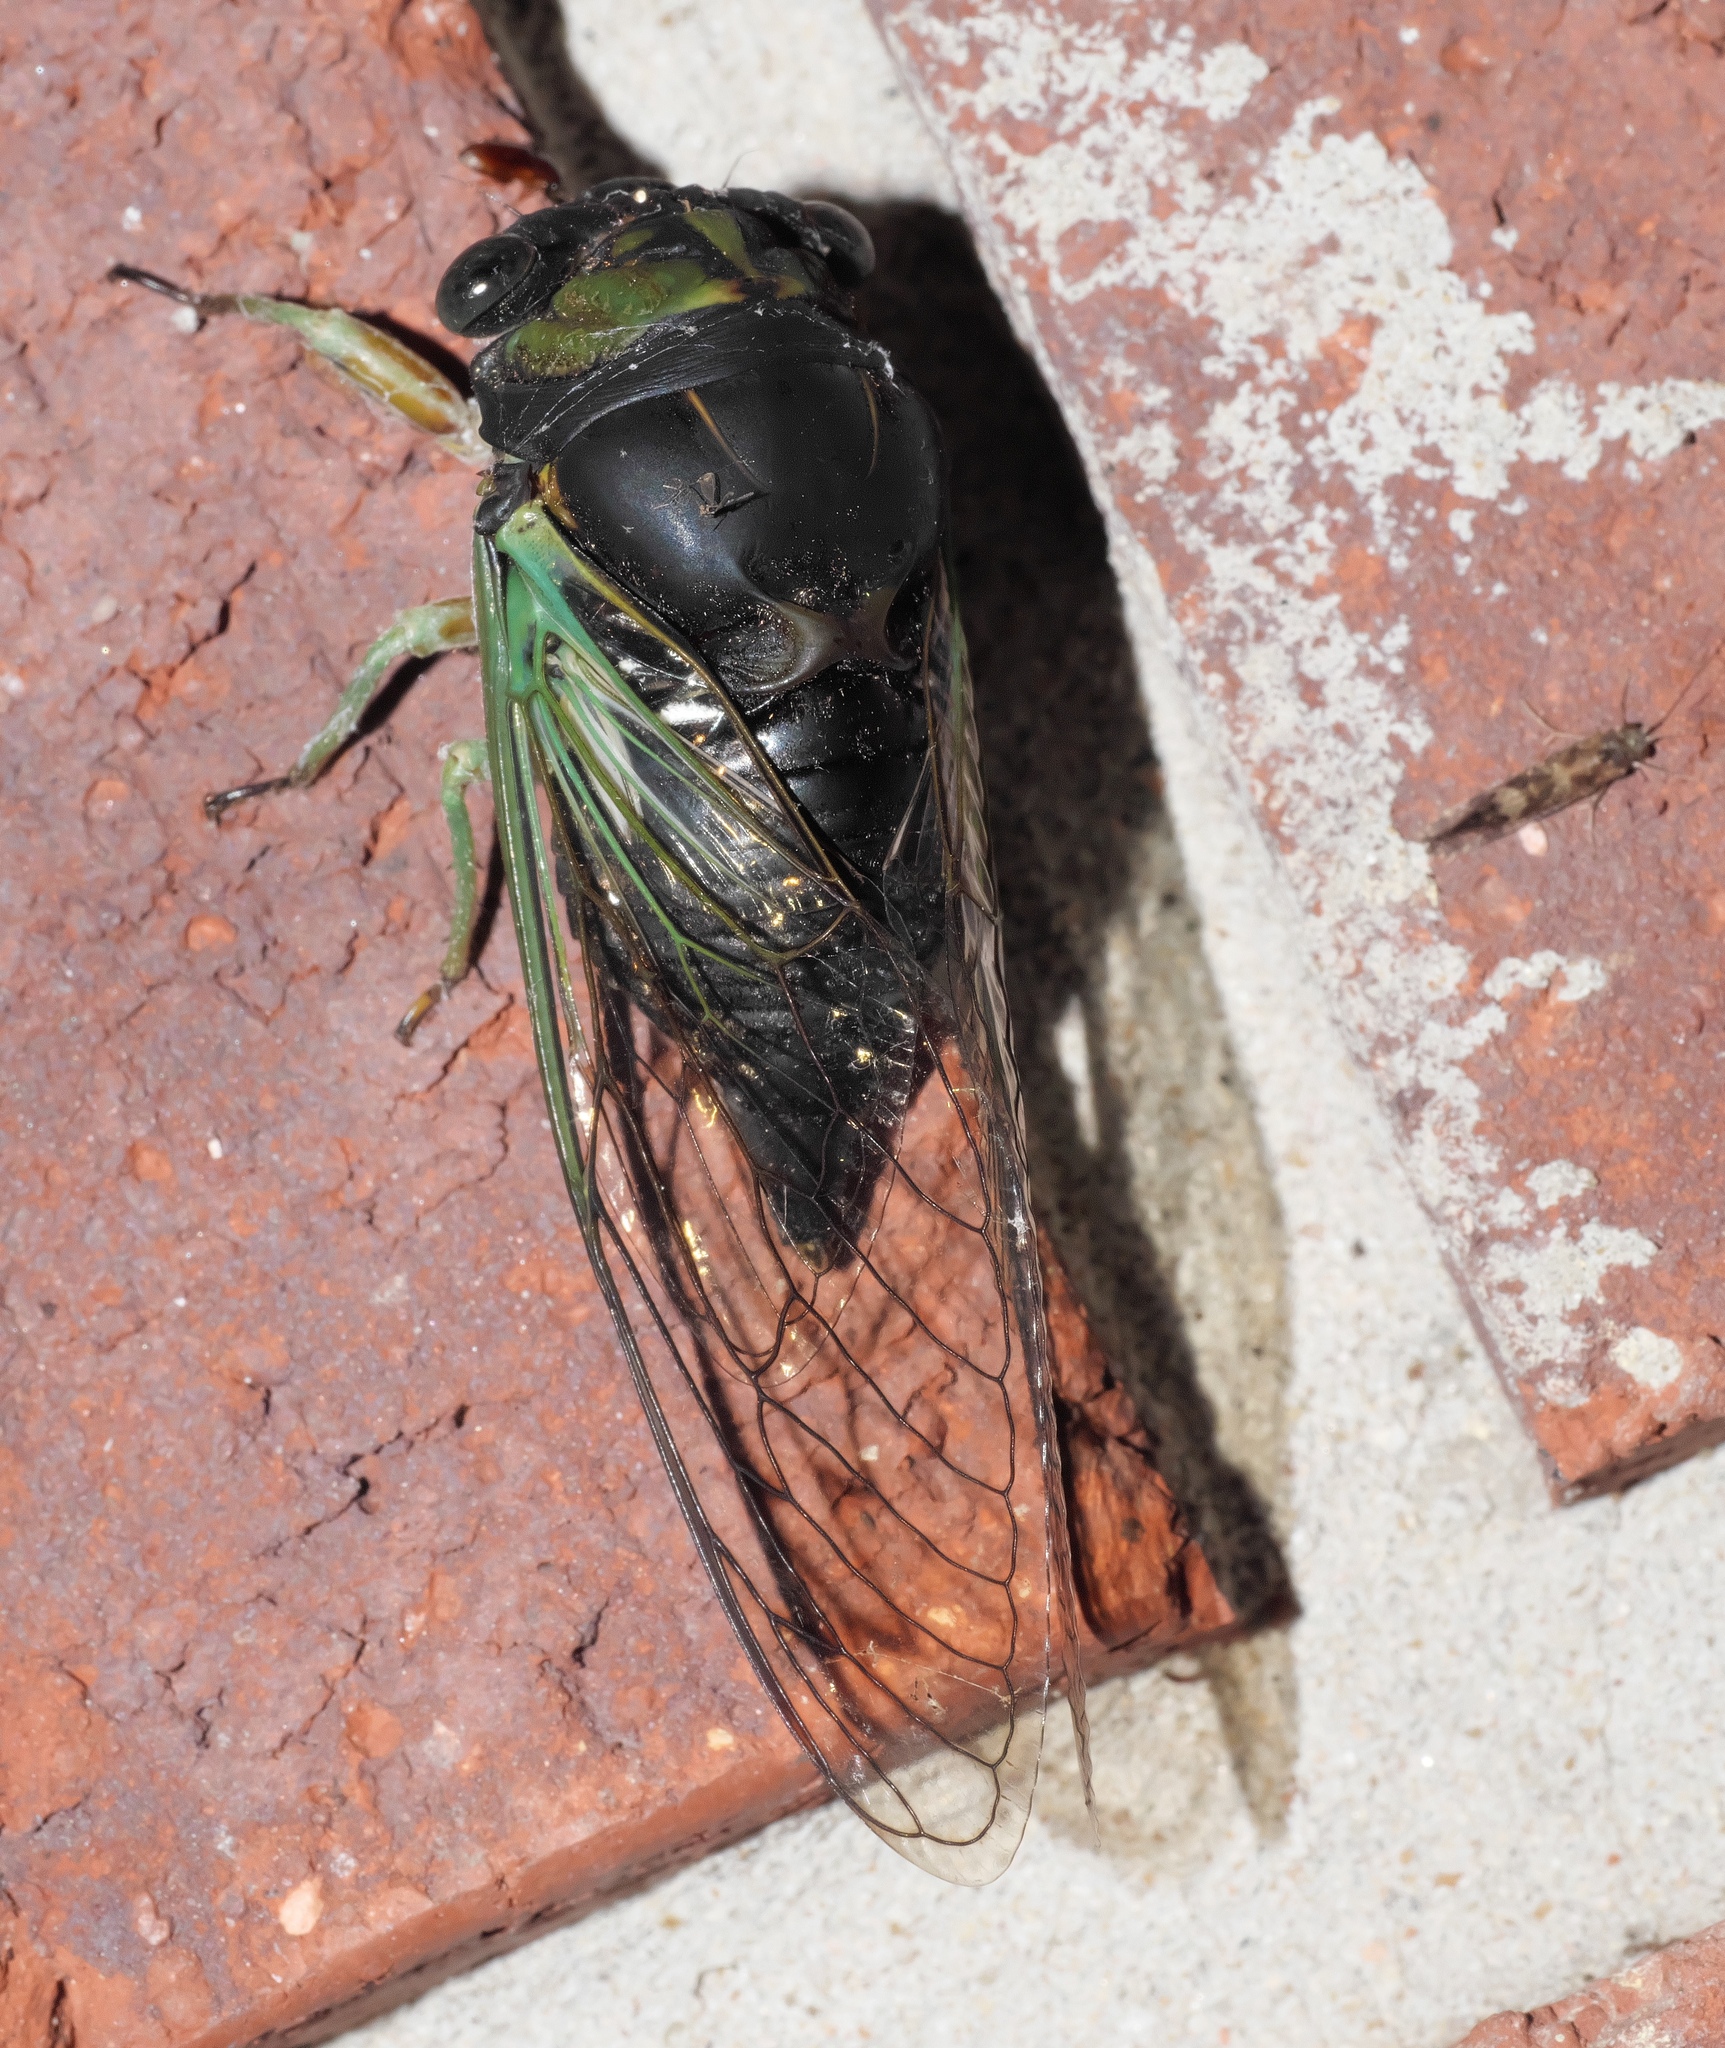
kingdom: Animalia
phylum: Arthropoda
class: Insecta
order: Hemiptera
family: Cicadidae
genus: Neotibicen
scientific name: Neotibicen tibicen
